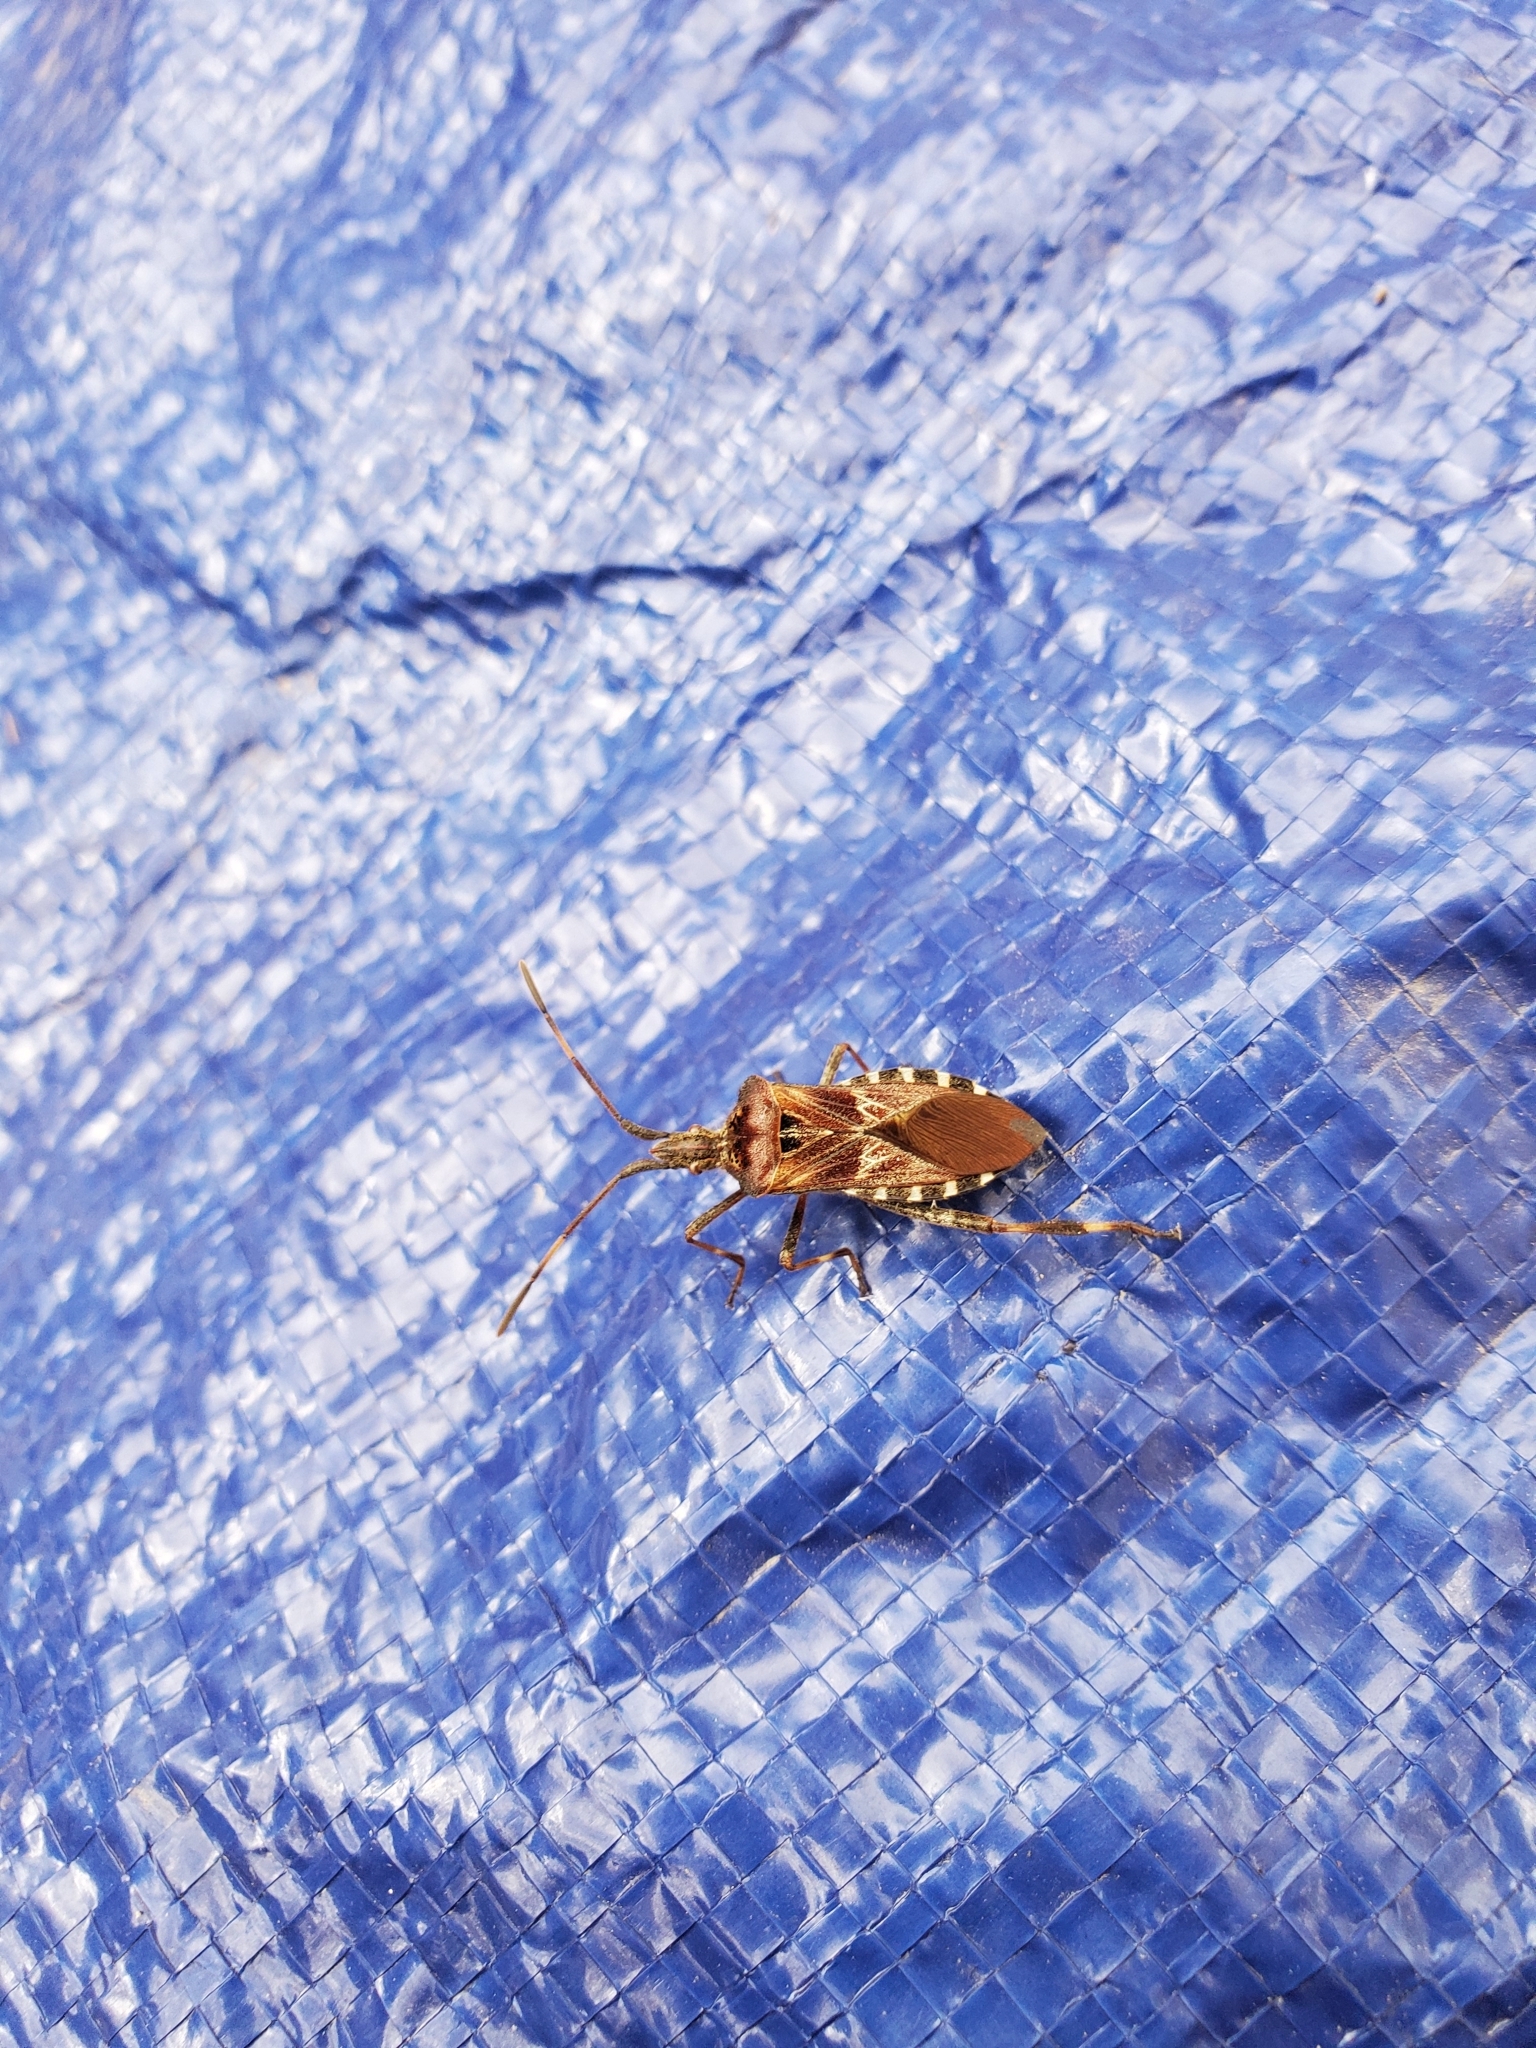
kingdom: Animalia
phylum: Arthropoda
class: Insecta
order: Hemiptera
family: Coreidae
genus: Leptoglossus
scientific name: Leptoglossus occidentalis
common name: Western conifer-seed bug
